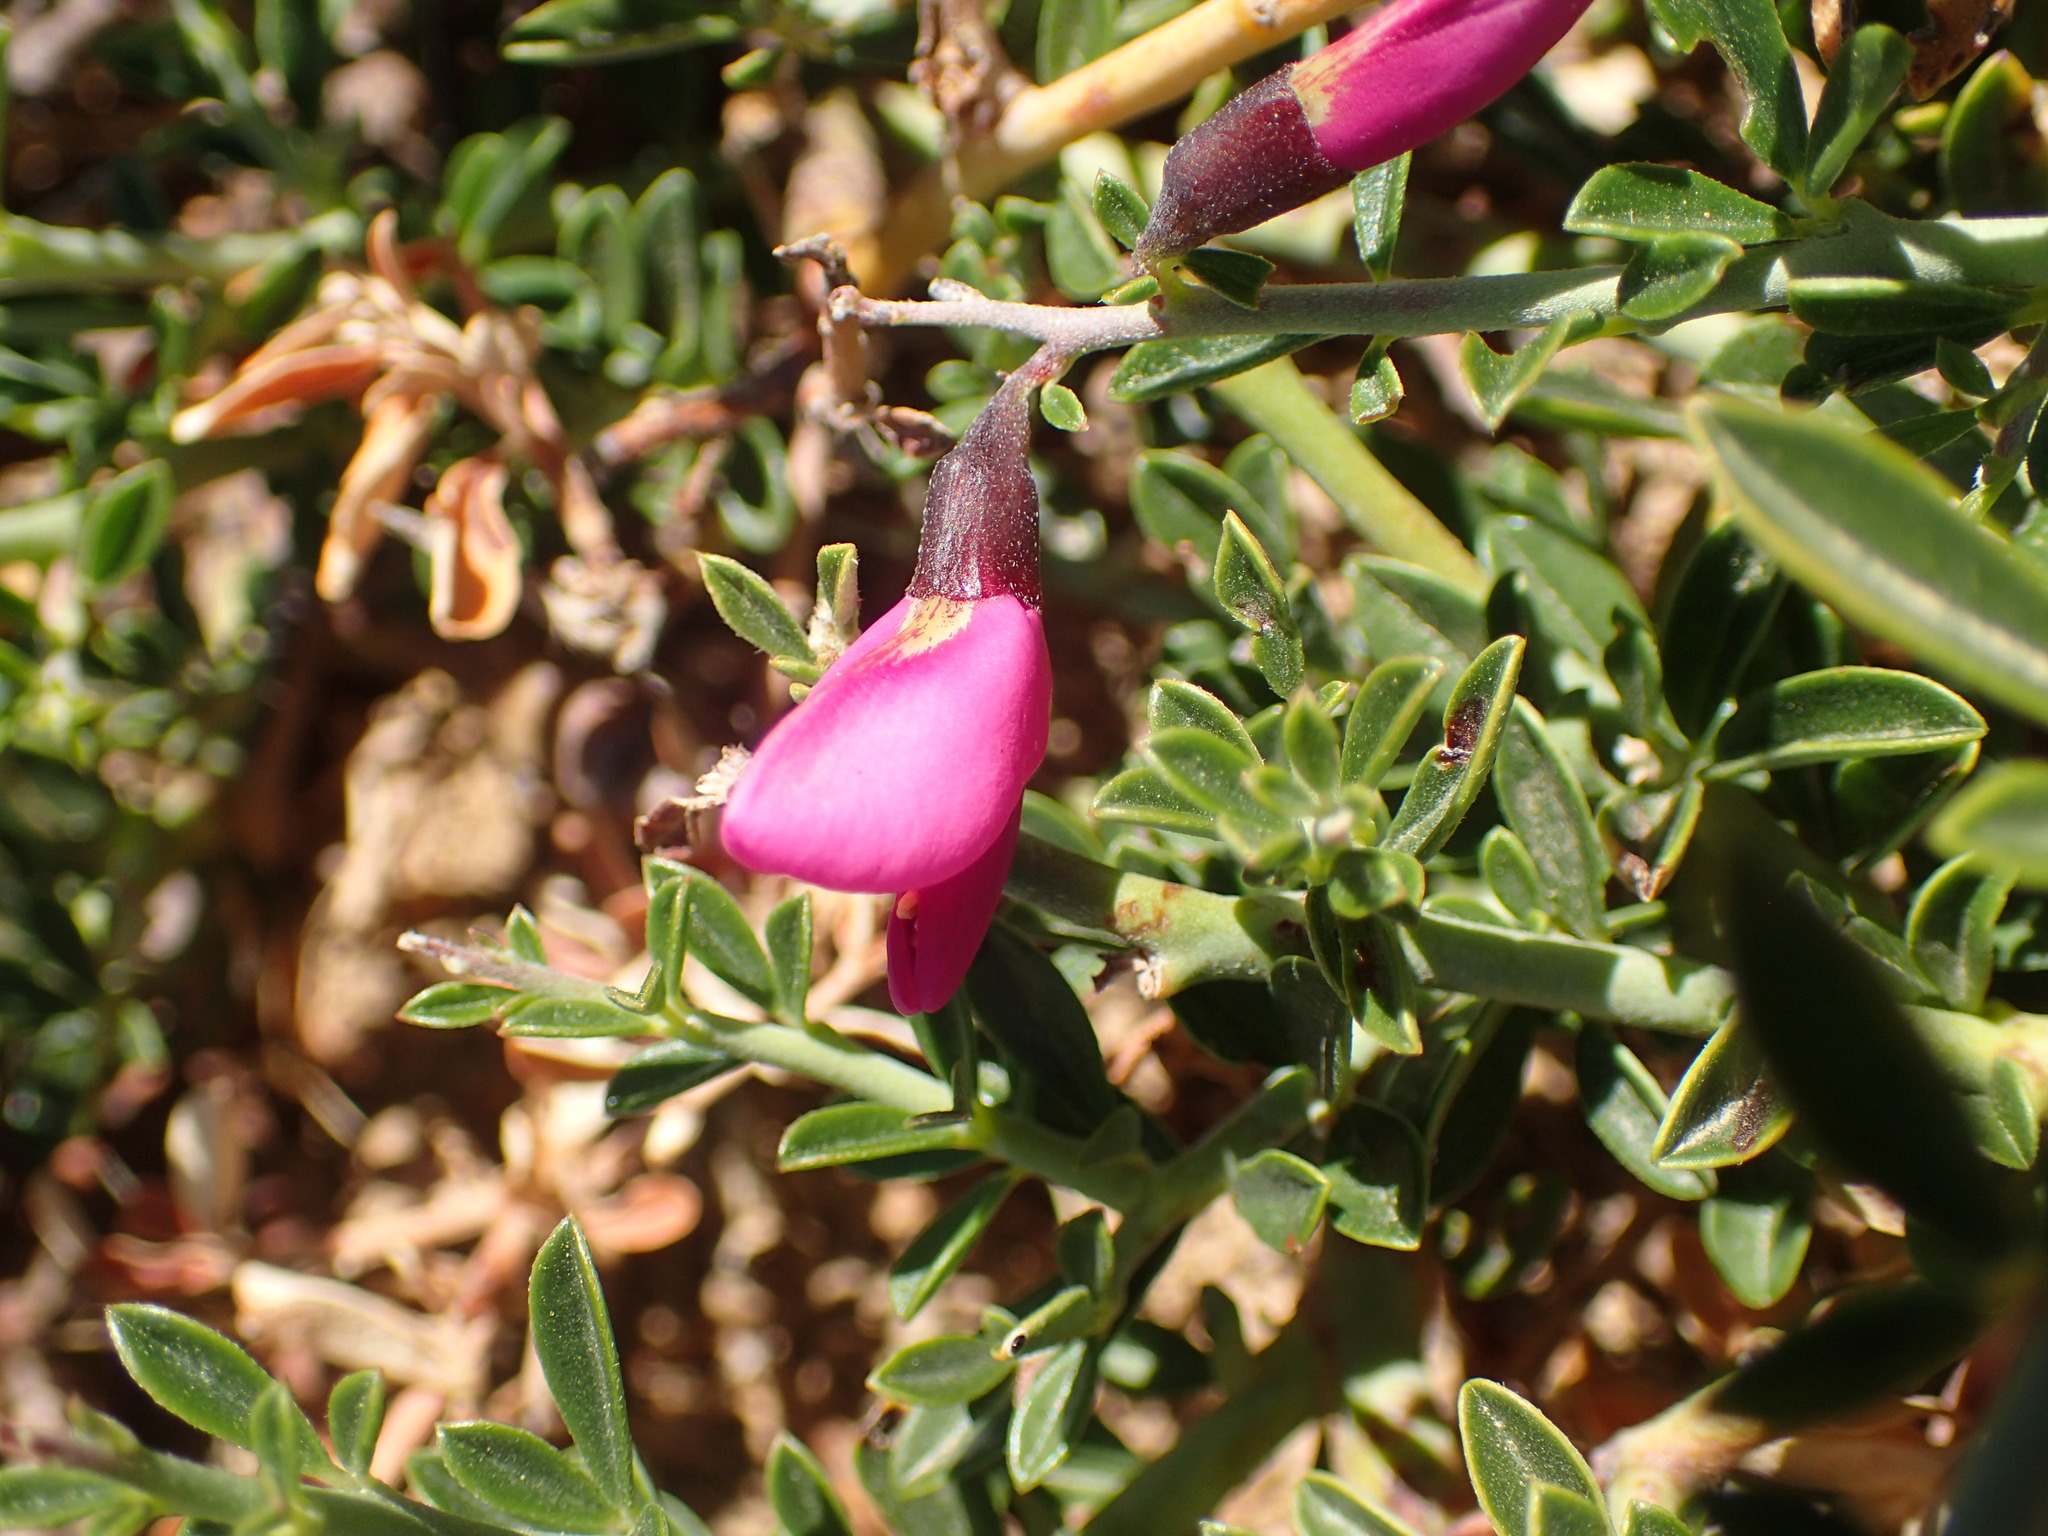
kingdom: Plantae
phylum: Tracheophyta
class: Magnoliopsida
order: Fabales
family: Fabaceae
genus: Pickeringia
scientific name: Pickeringia montana
